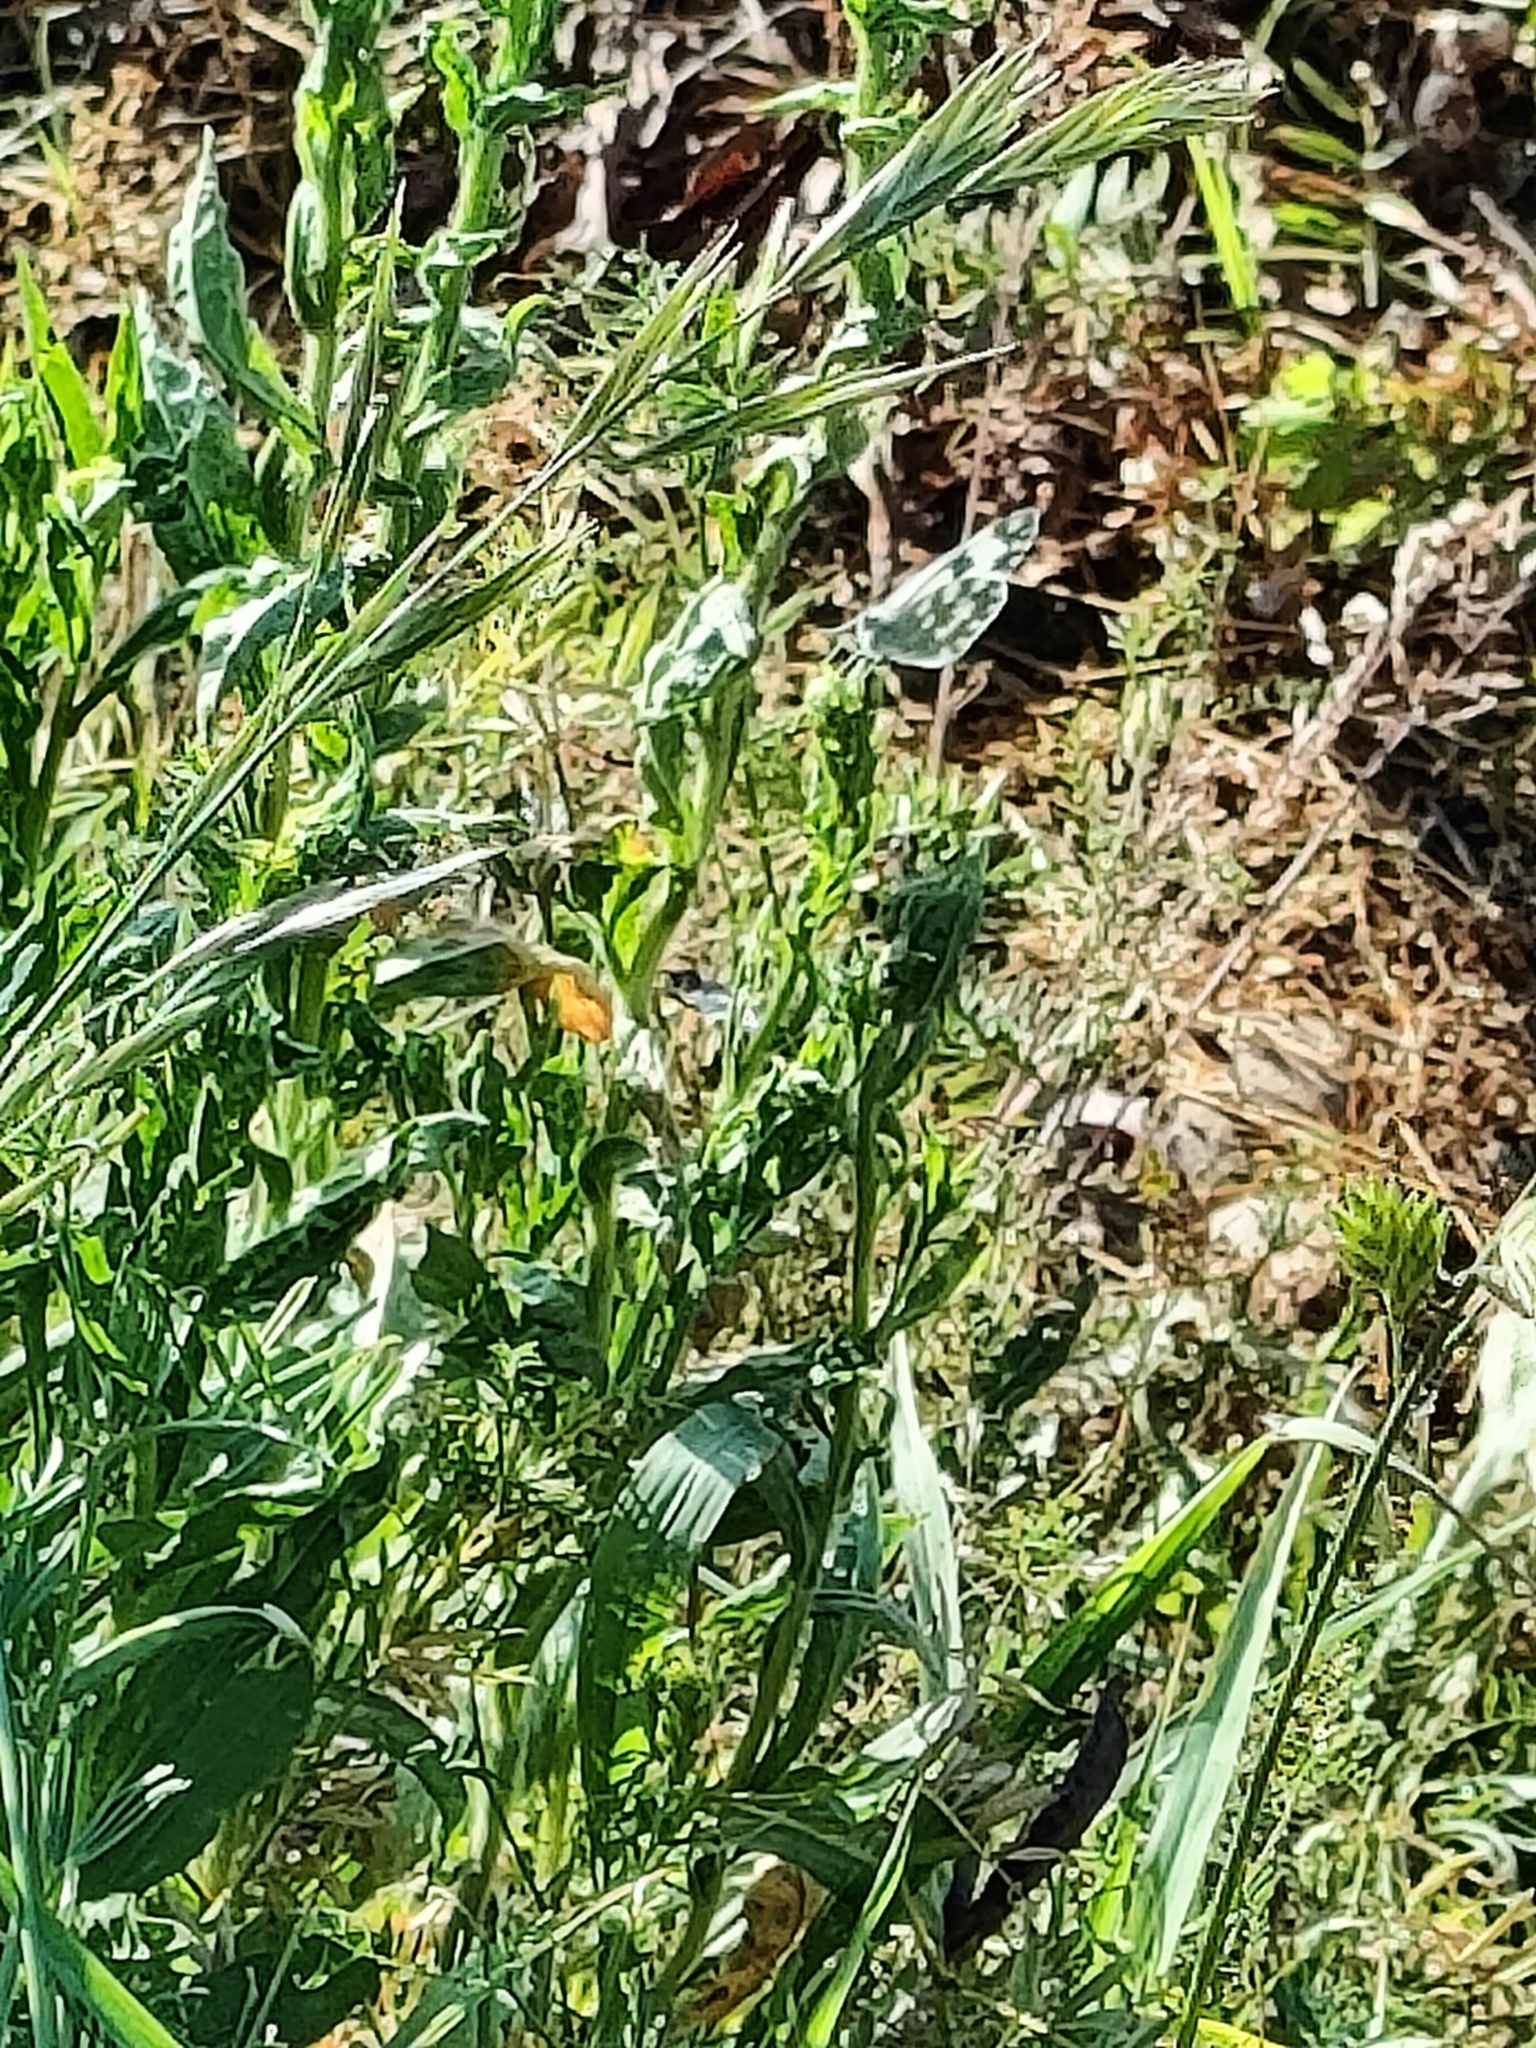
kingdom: Animalia
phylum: Arthropoda
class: Insecta
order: Lepidoptera
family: Pieridae
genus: Pontia
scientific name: Pontia edusa
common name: Eastern bath white
